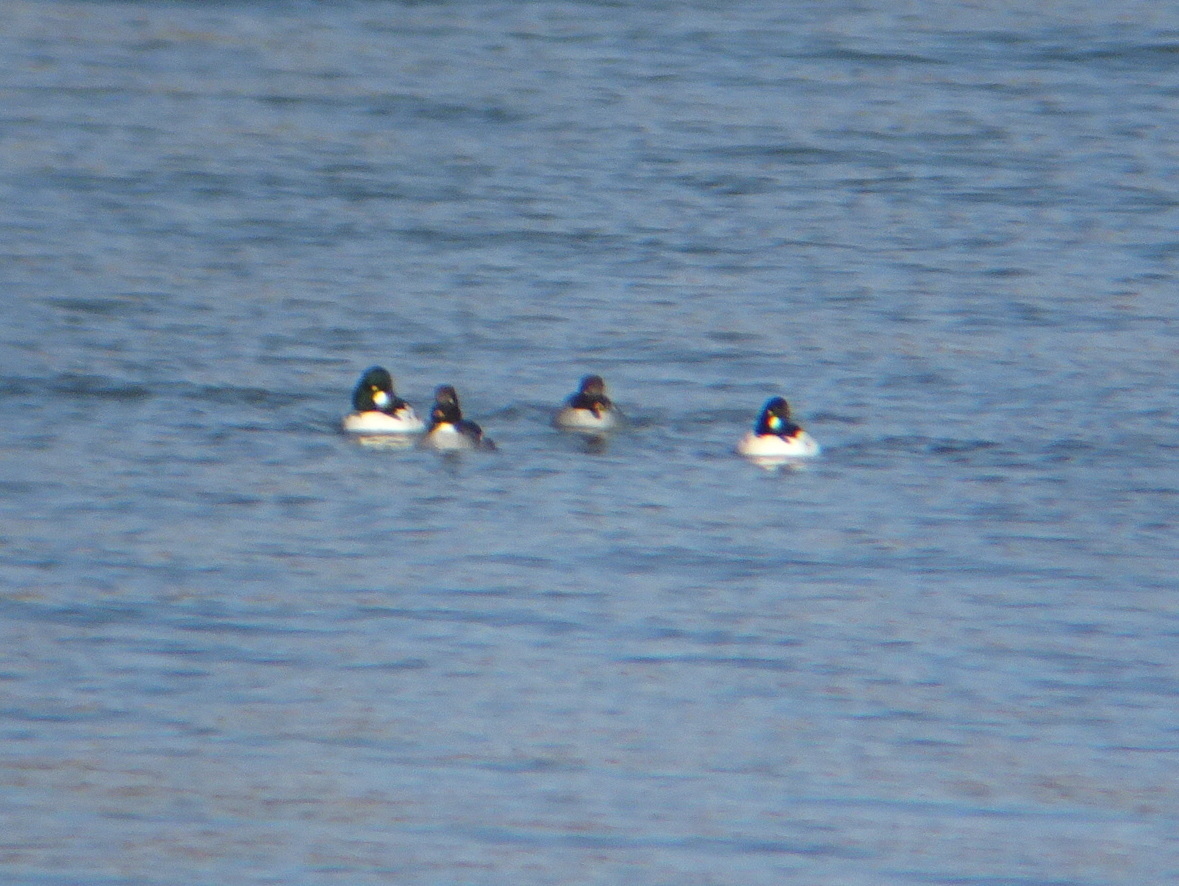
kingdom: Animalia
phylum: Chordata
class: Aves
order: Anseriformes
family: Anatidae
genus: Bucephala
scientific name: Bucephala clangula
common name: Common goldeneye
